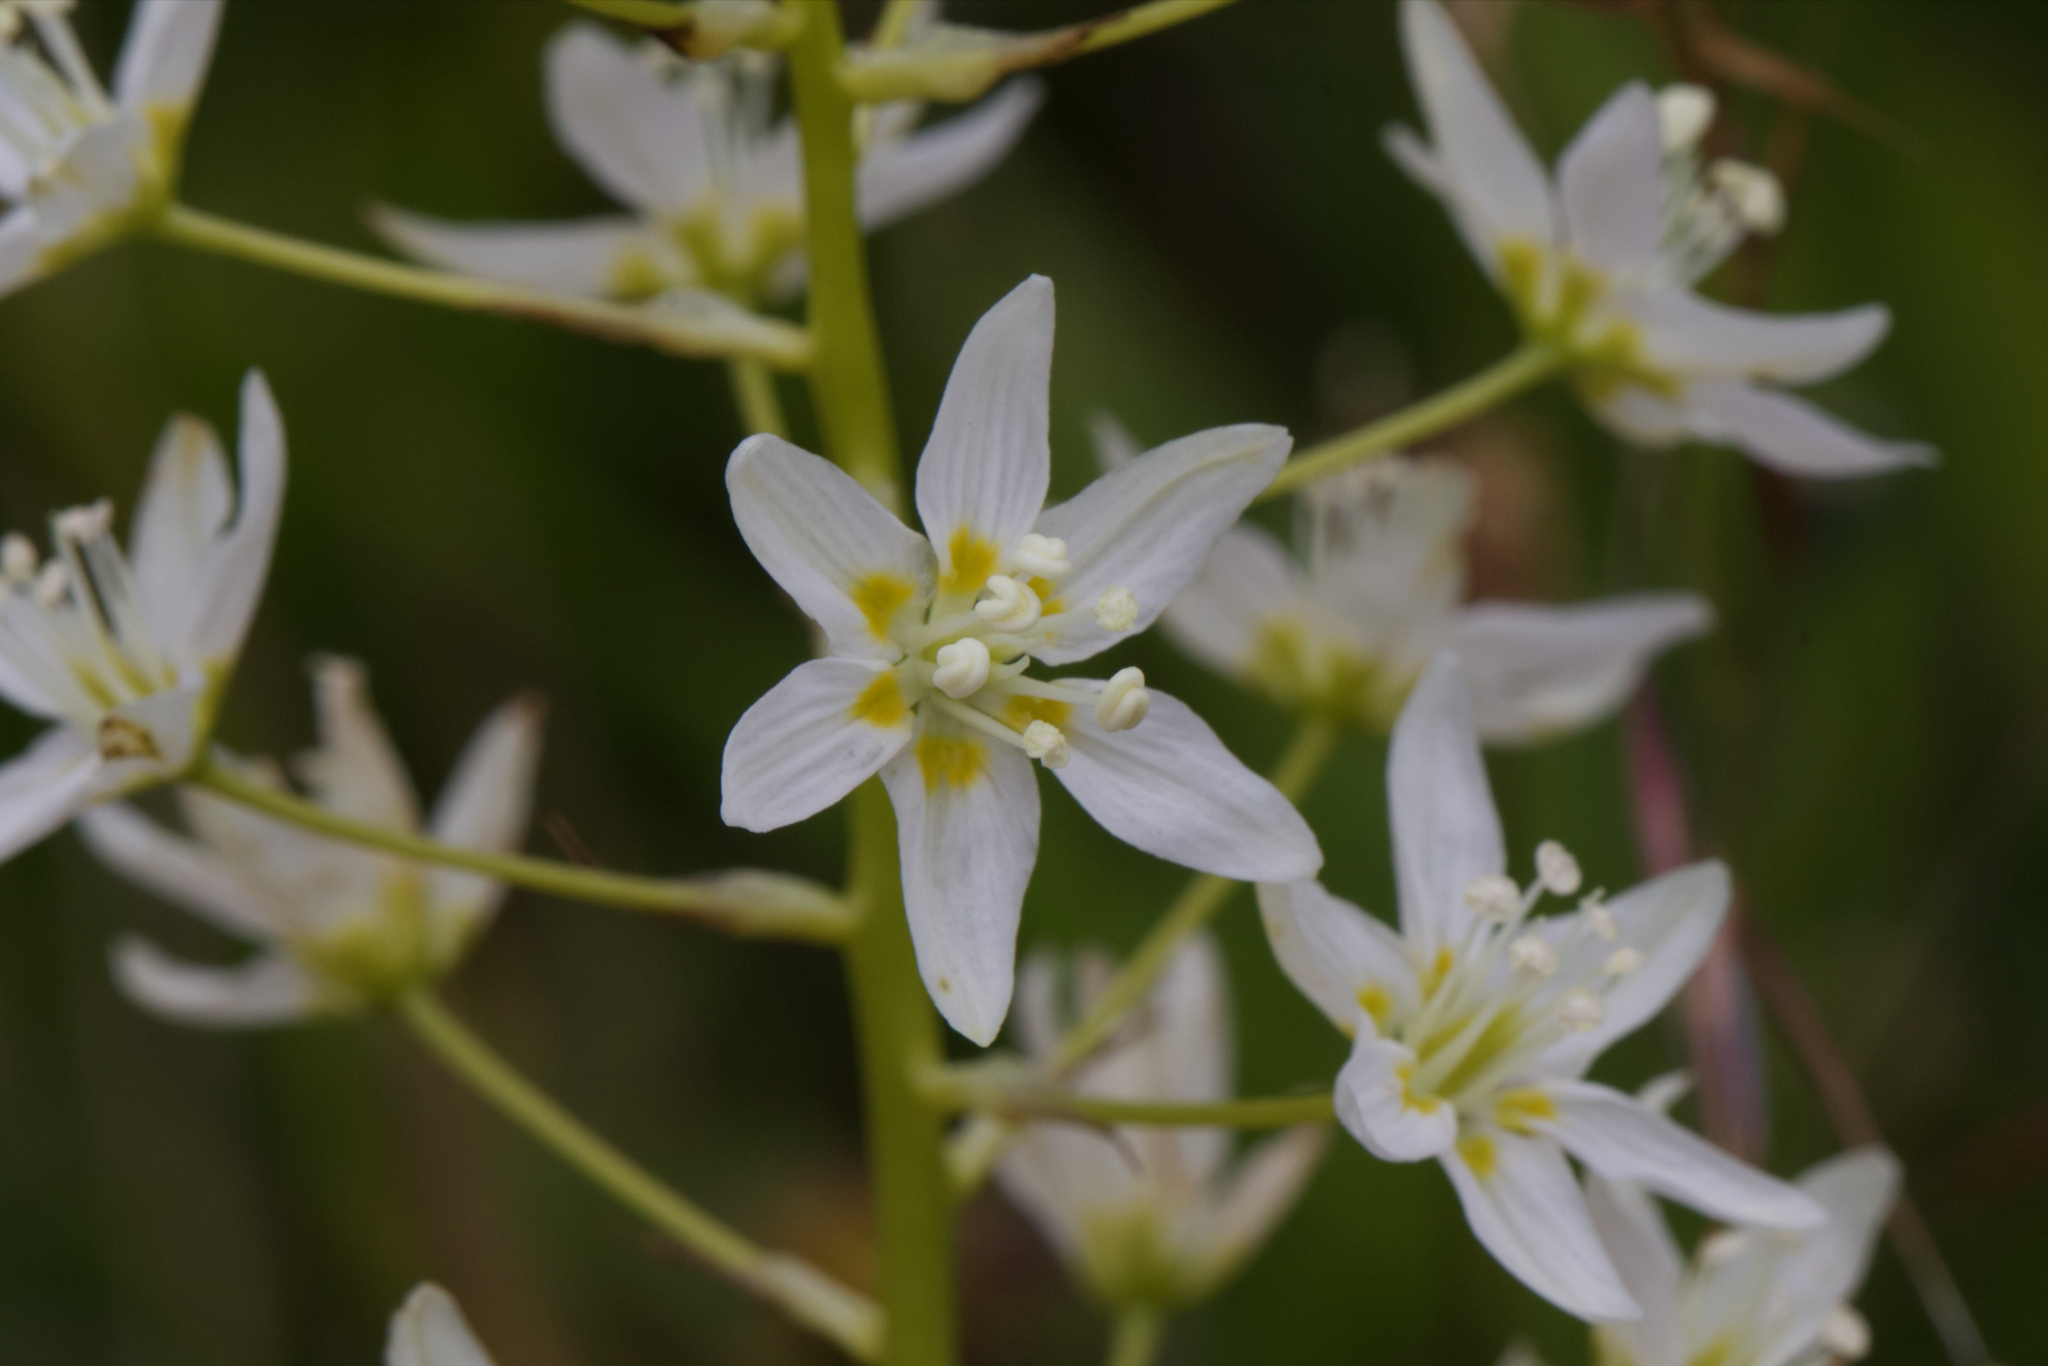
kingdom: Plantae
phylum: Tracheophyta
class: Liliopsida
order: Liliales
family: Melanthiaceae
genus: Toxicoscordion
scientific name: Toxicoscordion fremontii
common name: Fremont's death camas
